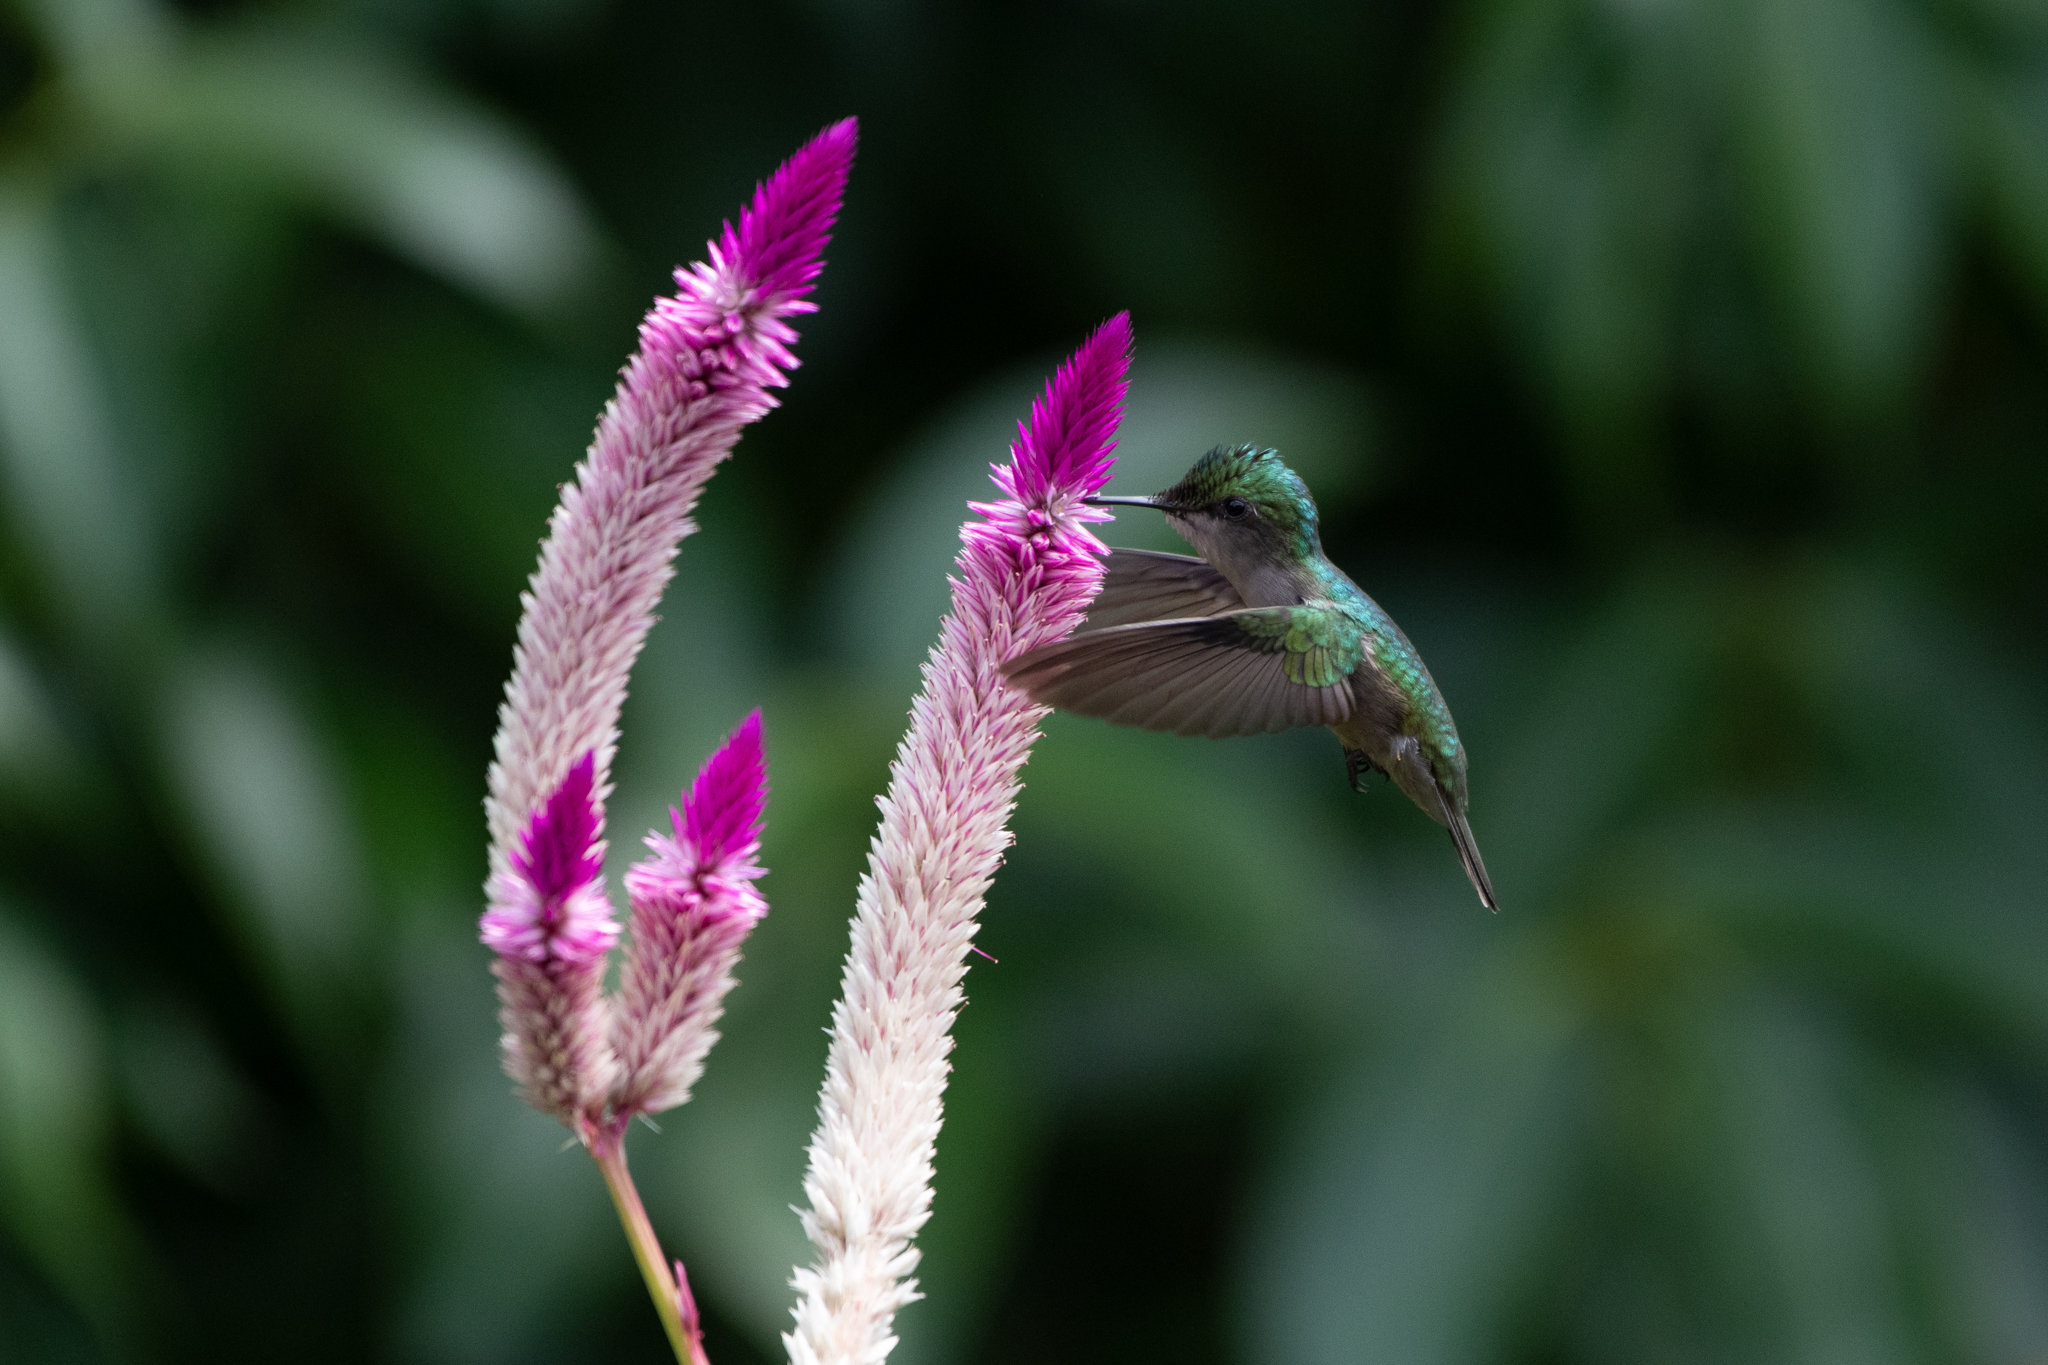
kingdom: Animalia
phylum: Chordata
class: Aves
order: Apodiformes
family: Trochilidae
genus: Orthorhyncus
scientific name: Orthorhyncus cristatus
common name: Antillean crested hummingbird
